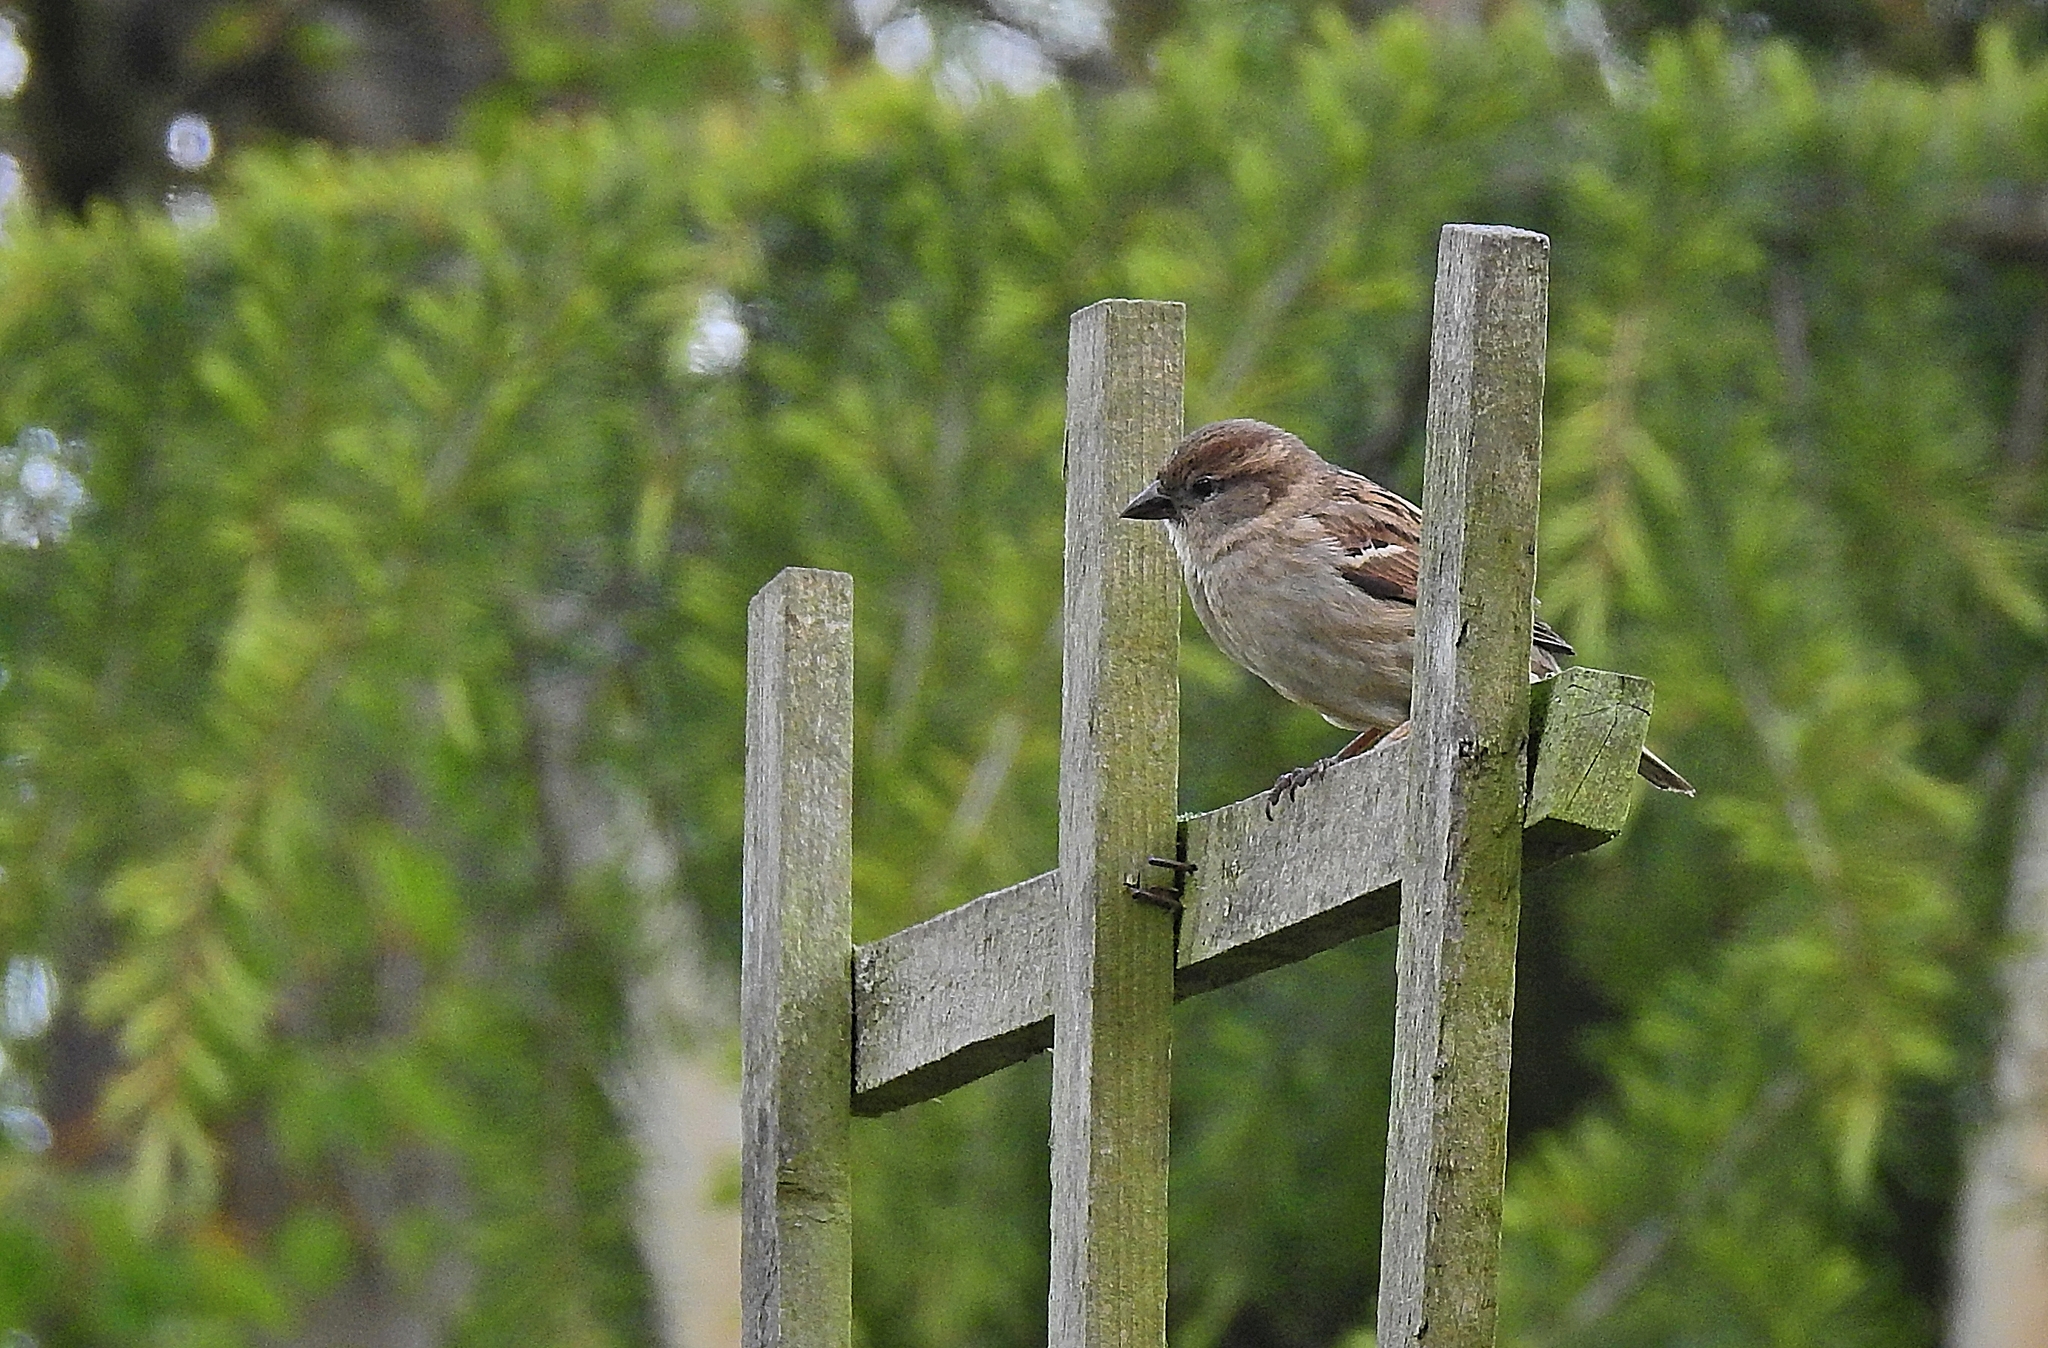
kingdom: Animalia
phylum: Chordata
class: Aves
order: Passeriformes
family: Passeridae
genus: Passer
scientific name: Passer domesticus
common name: House sparrow
